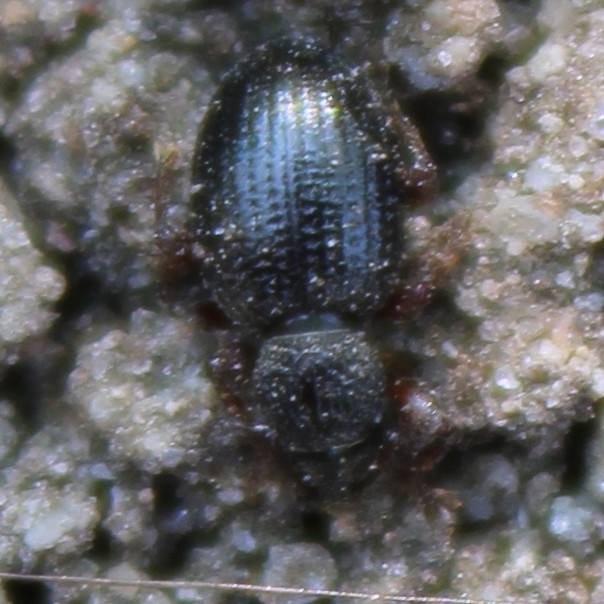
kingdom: Animalia
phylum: Arthropoda
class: Insecta
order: Coleoptera
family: Curculionidae
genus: Otiorhynchus
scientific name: Otiorhynchus ovatus
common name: Strawberry root weevil
